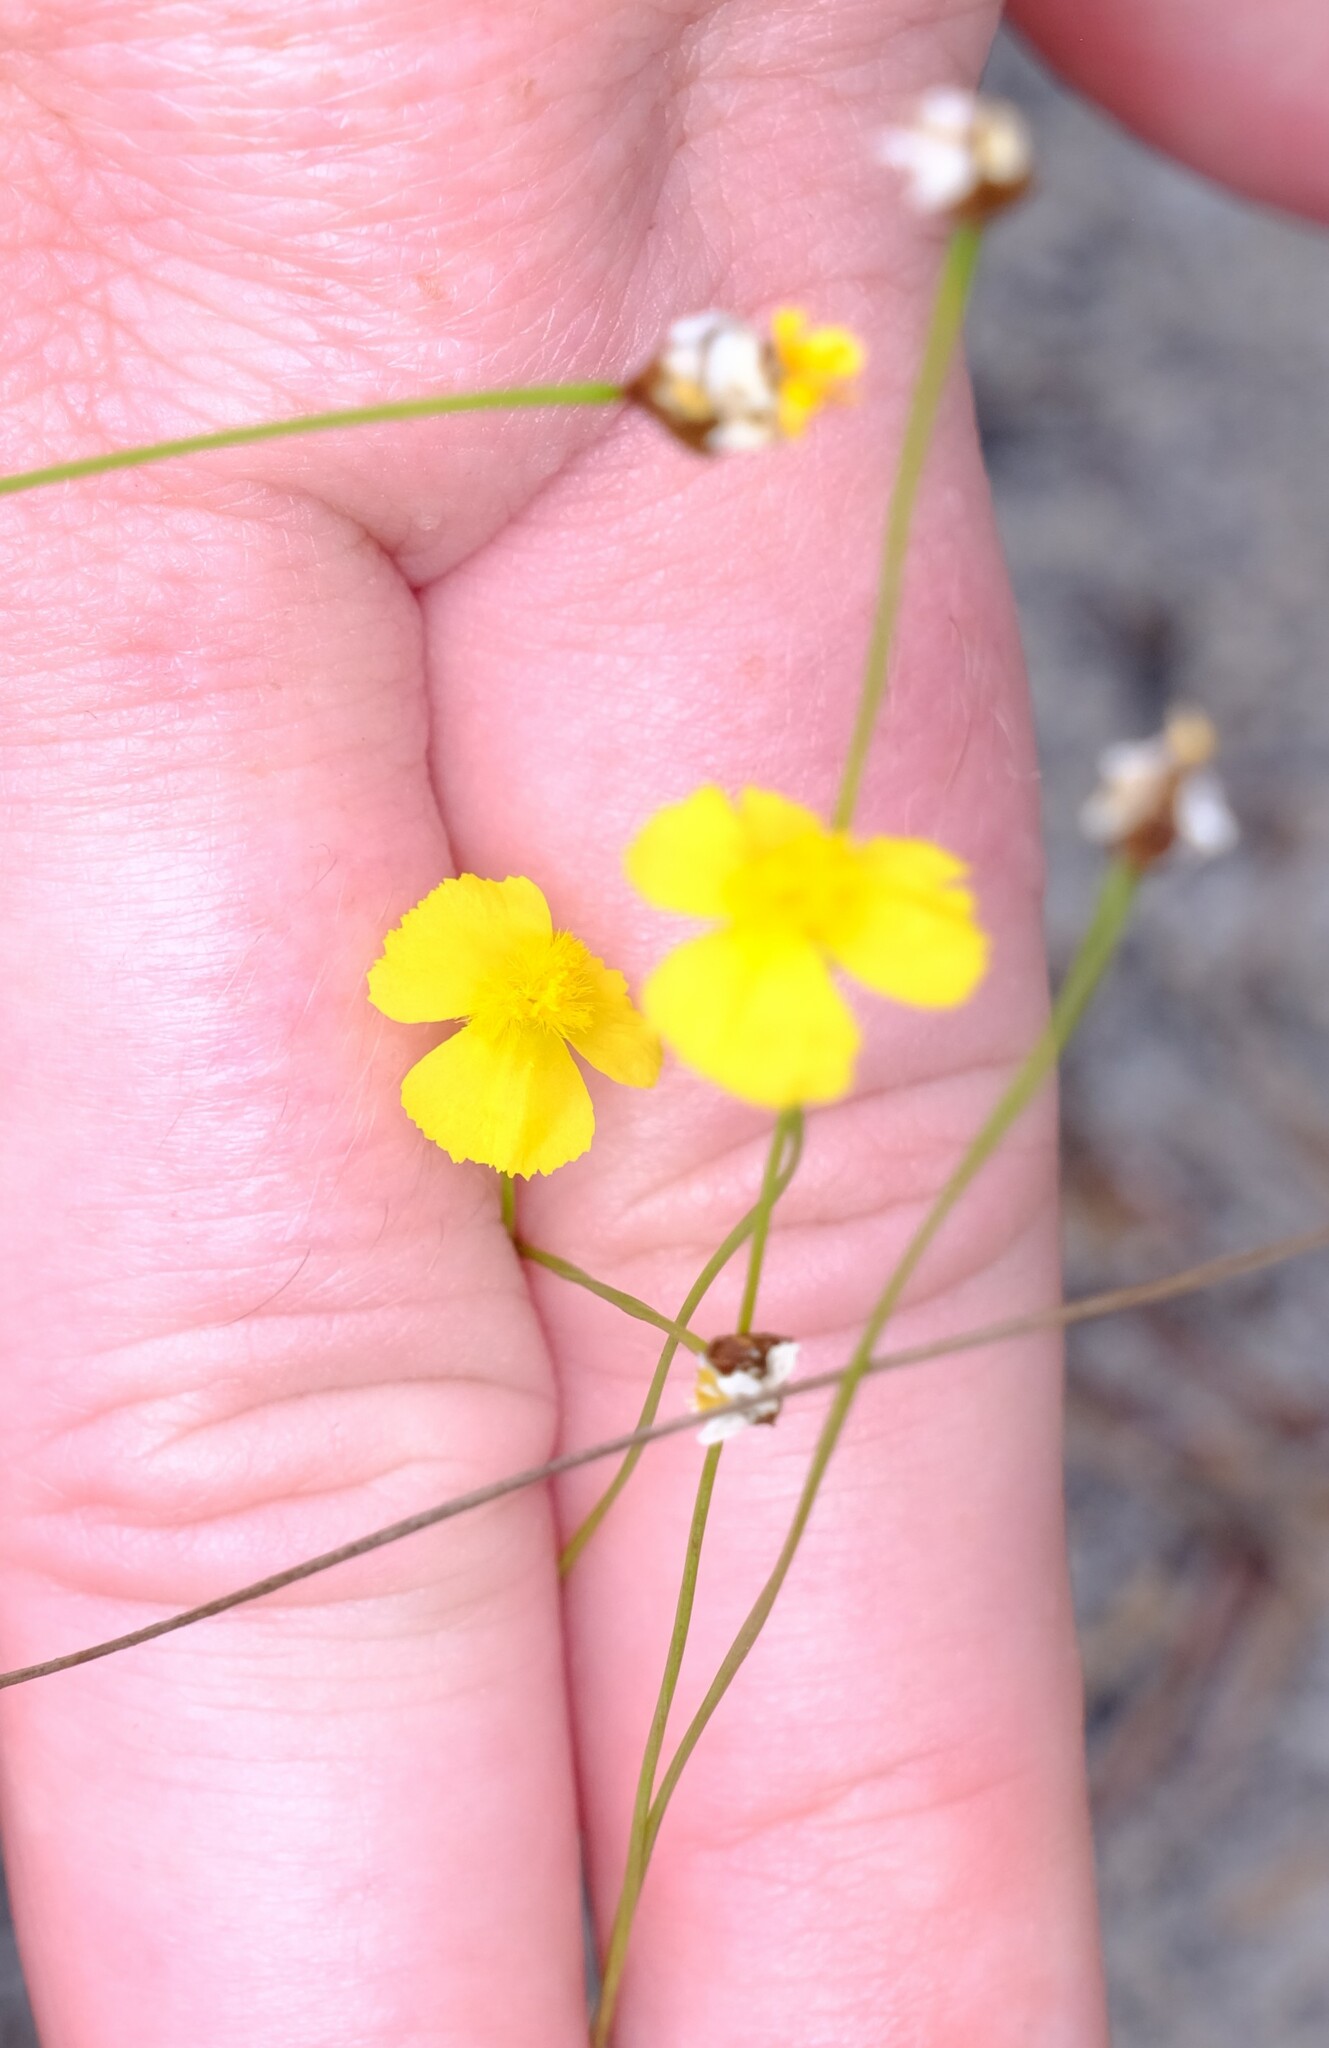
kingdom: Plantae
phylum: Tracheophyta
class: Liliopsida
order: Poales
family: Xyridaceae
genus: Xyris
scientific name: Xyris juncea
